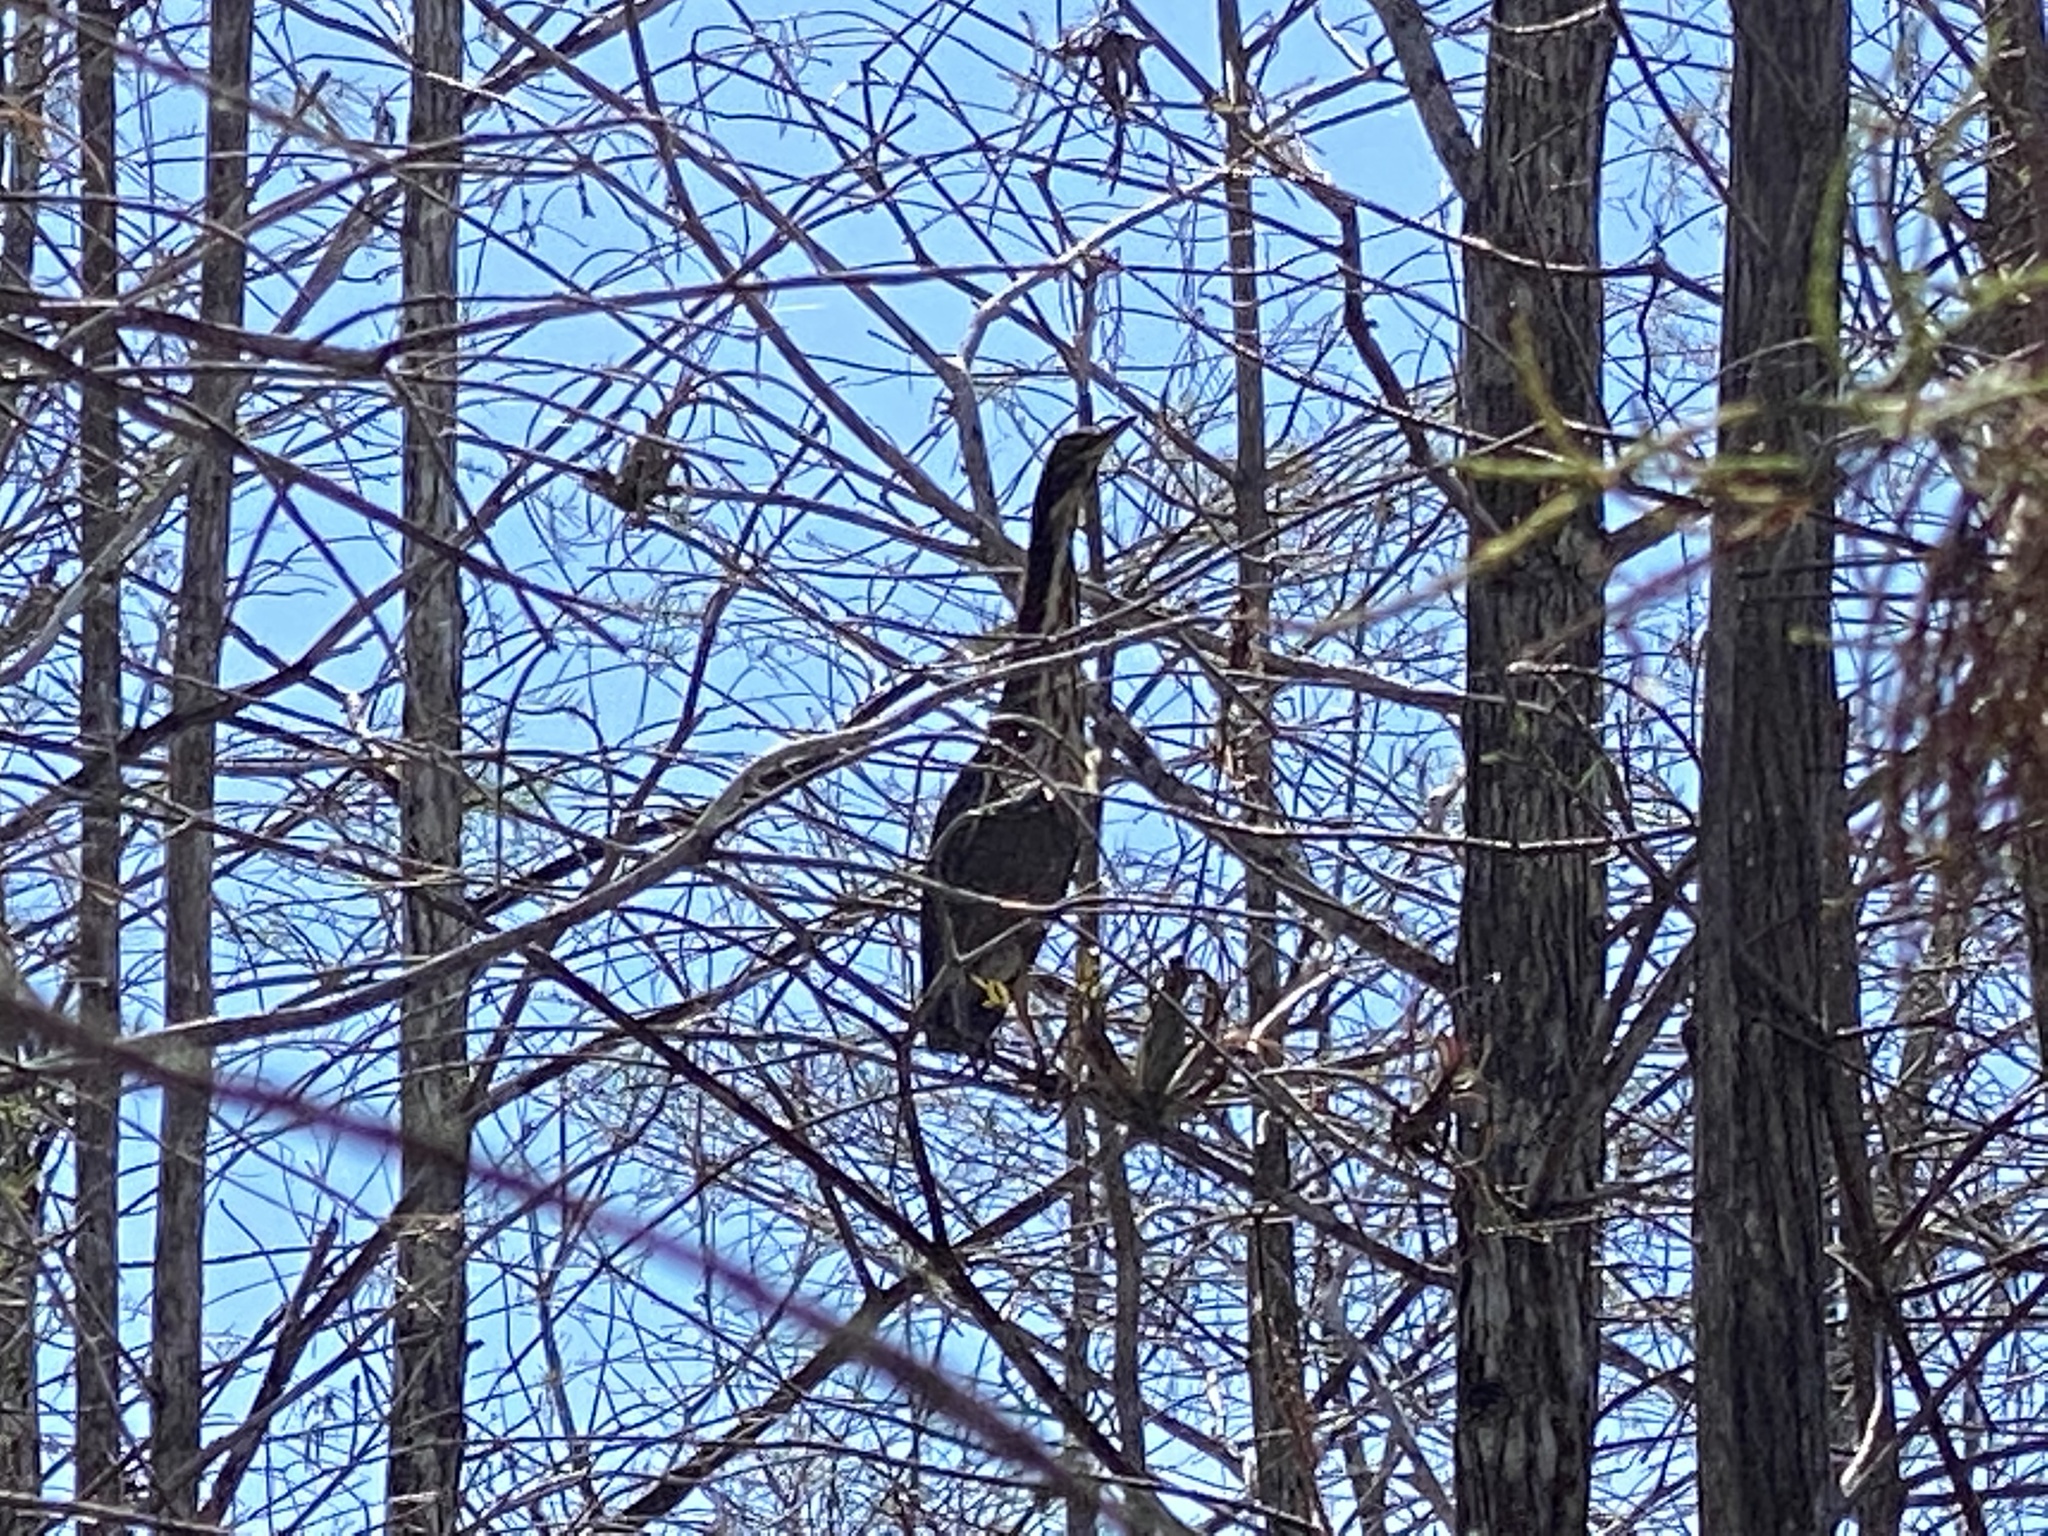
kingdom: Animalia
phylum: Chordata
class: Aves
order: Pelecaniformes
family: Ardeidae
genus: Butorides
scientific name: Butorides virescens
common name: Green heron
